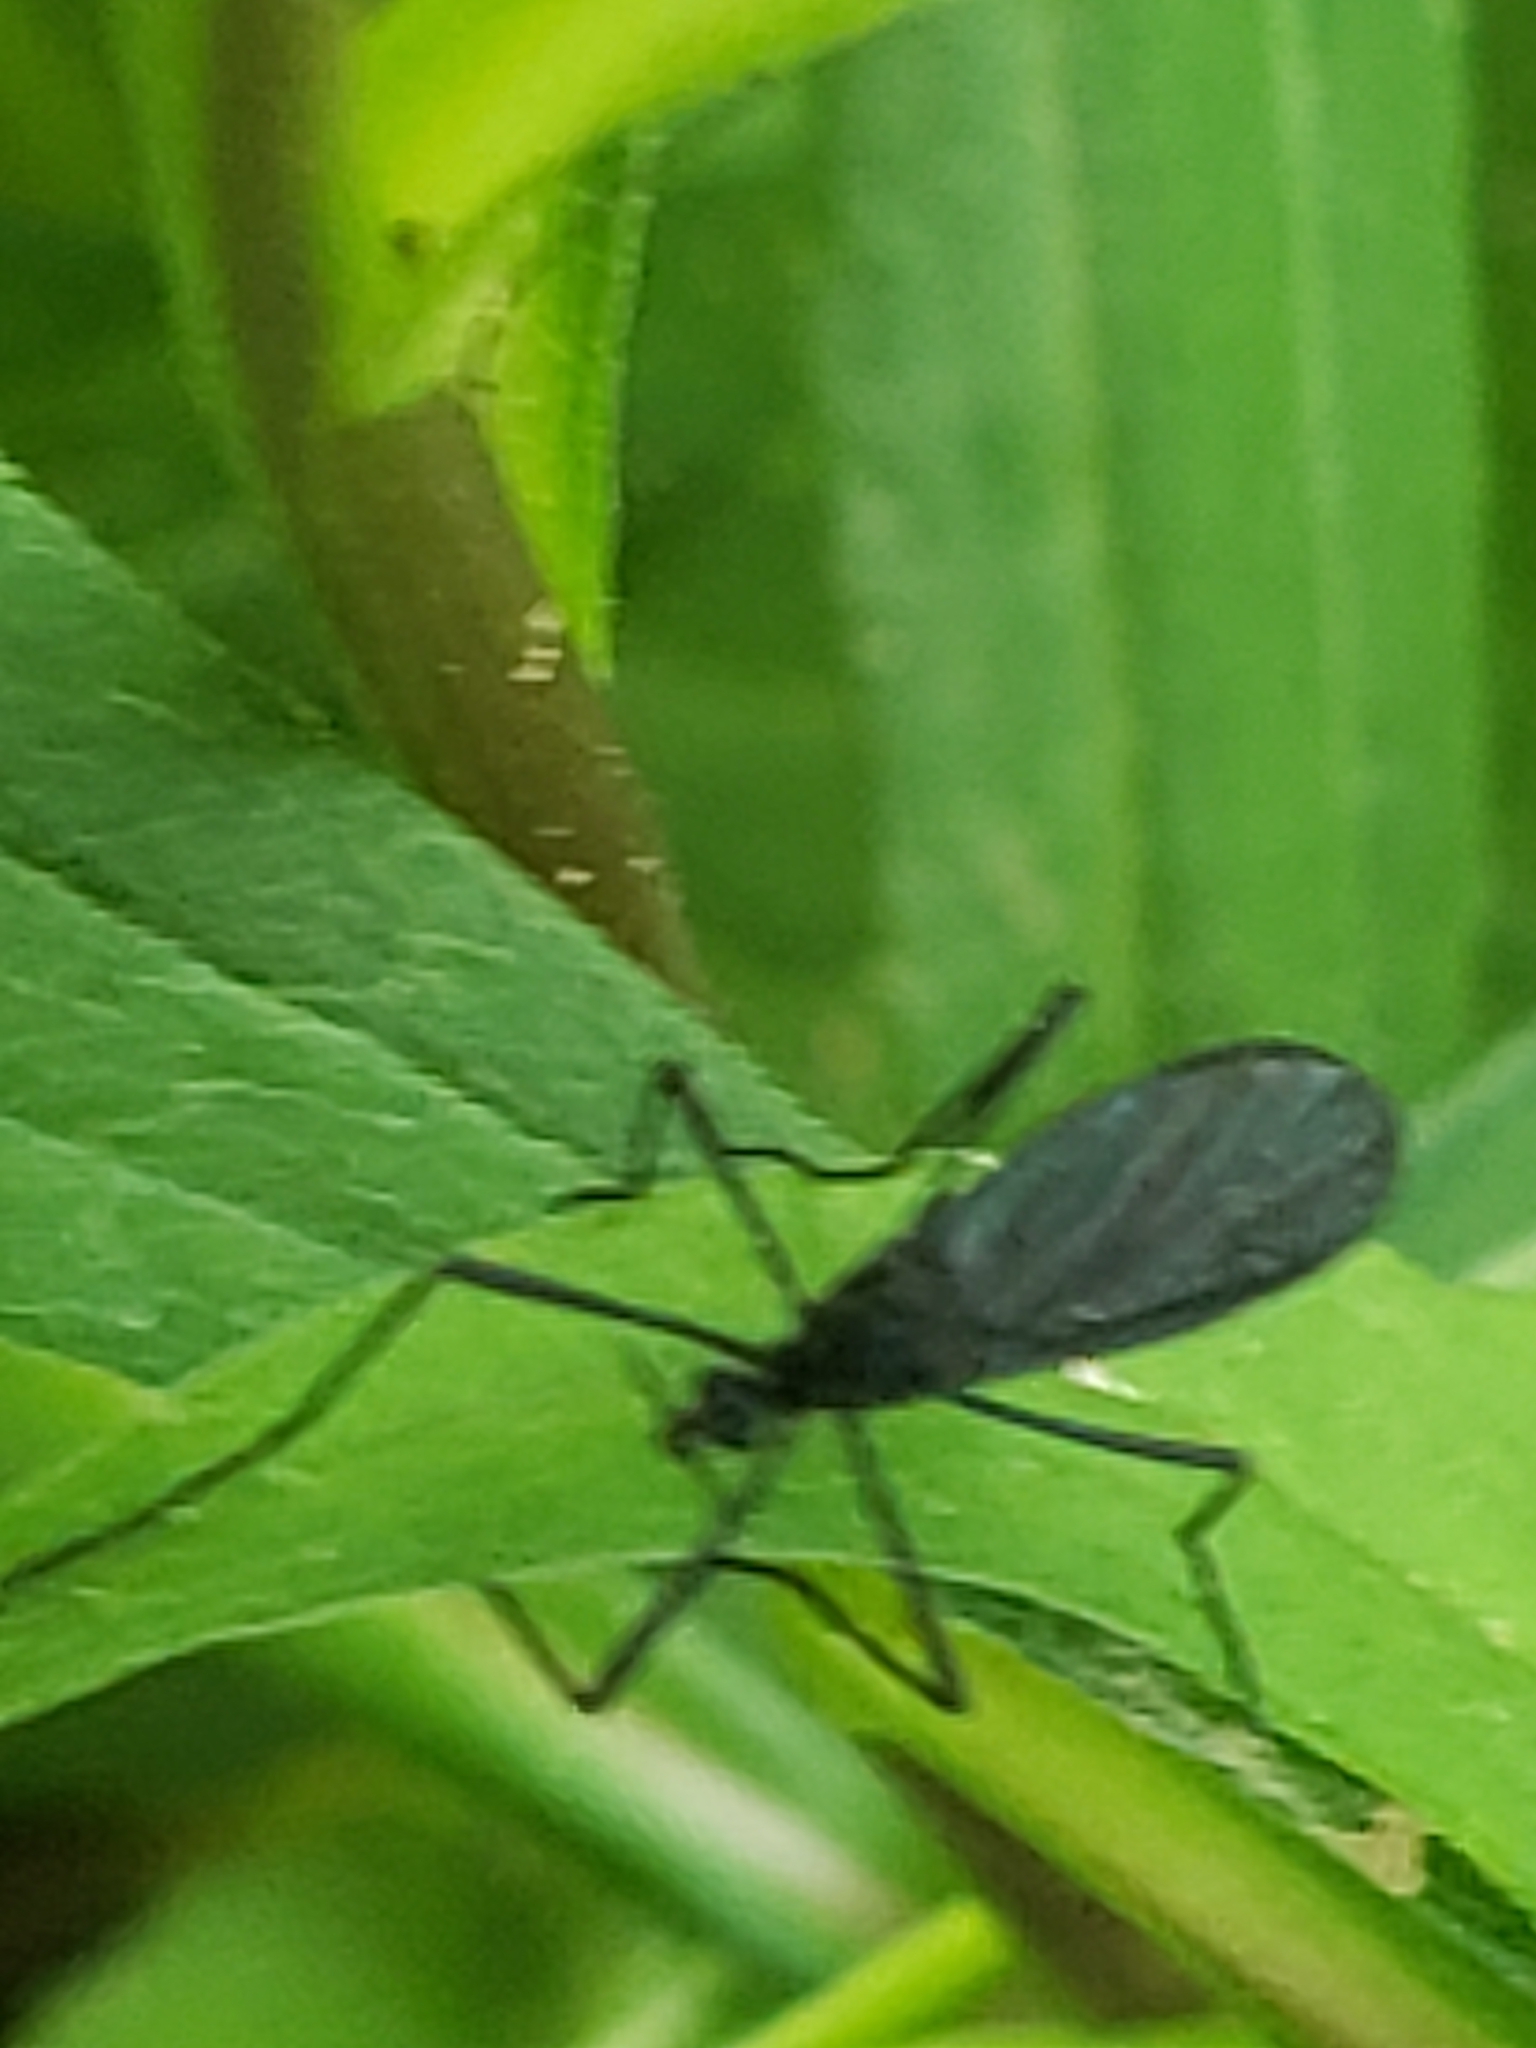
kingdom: Animalia
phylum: Arthropoda
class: Insecta
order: Diptera
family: Limoniidae
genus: Gnophomyia
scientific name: Gnophomyia tristissima
